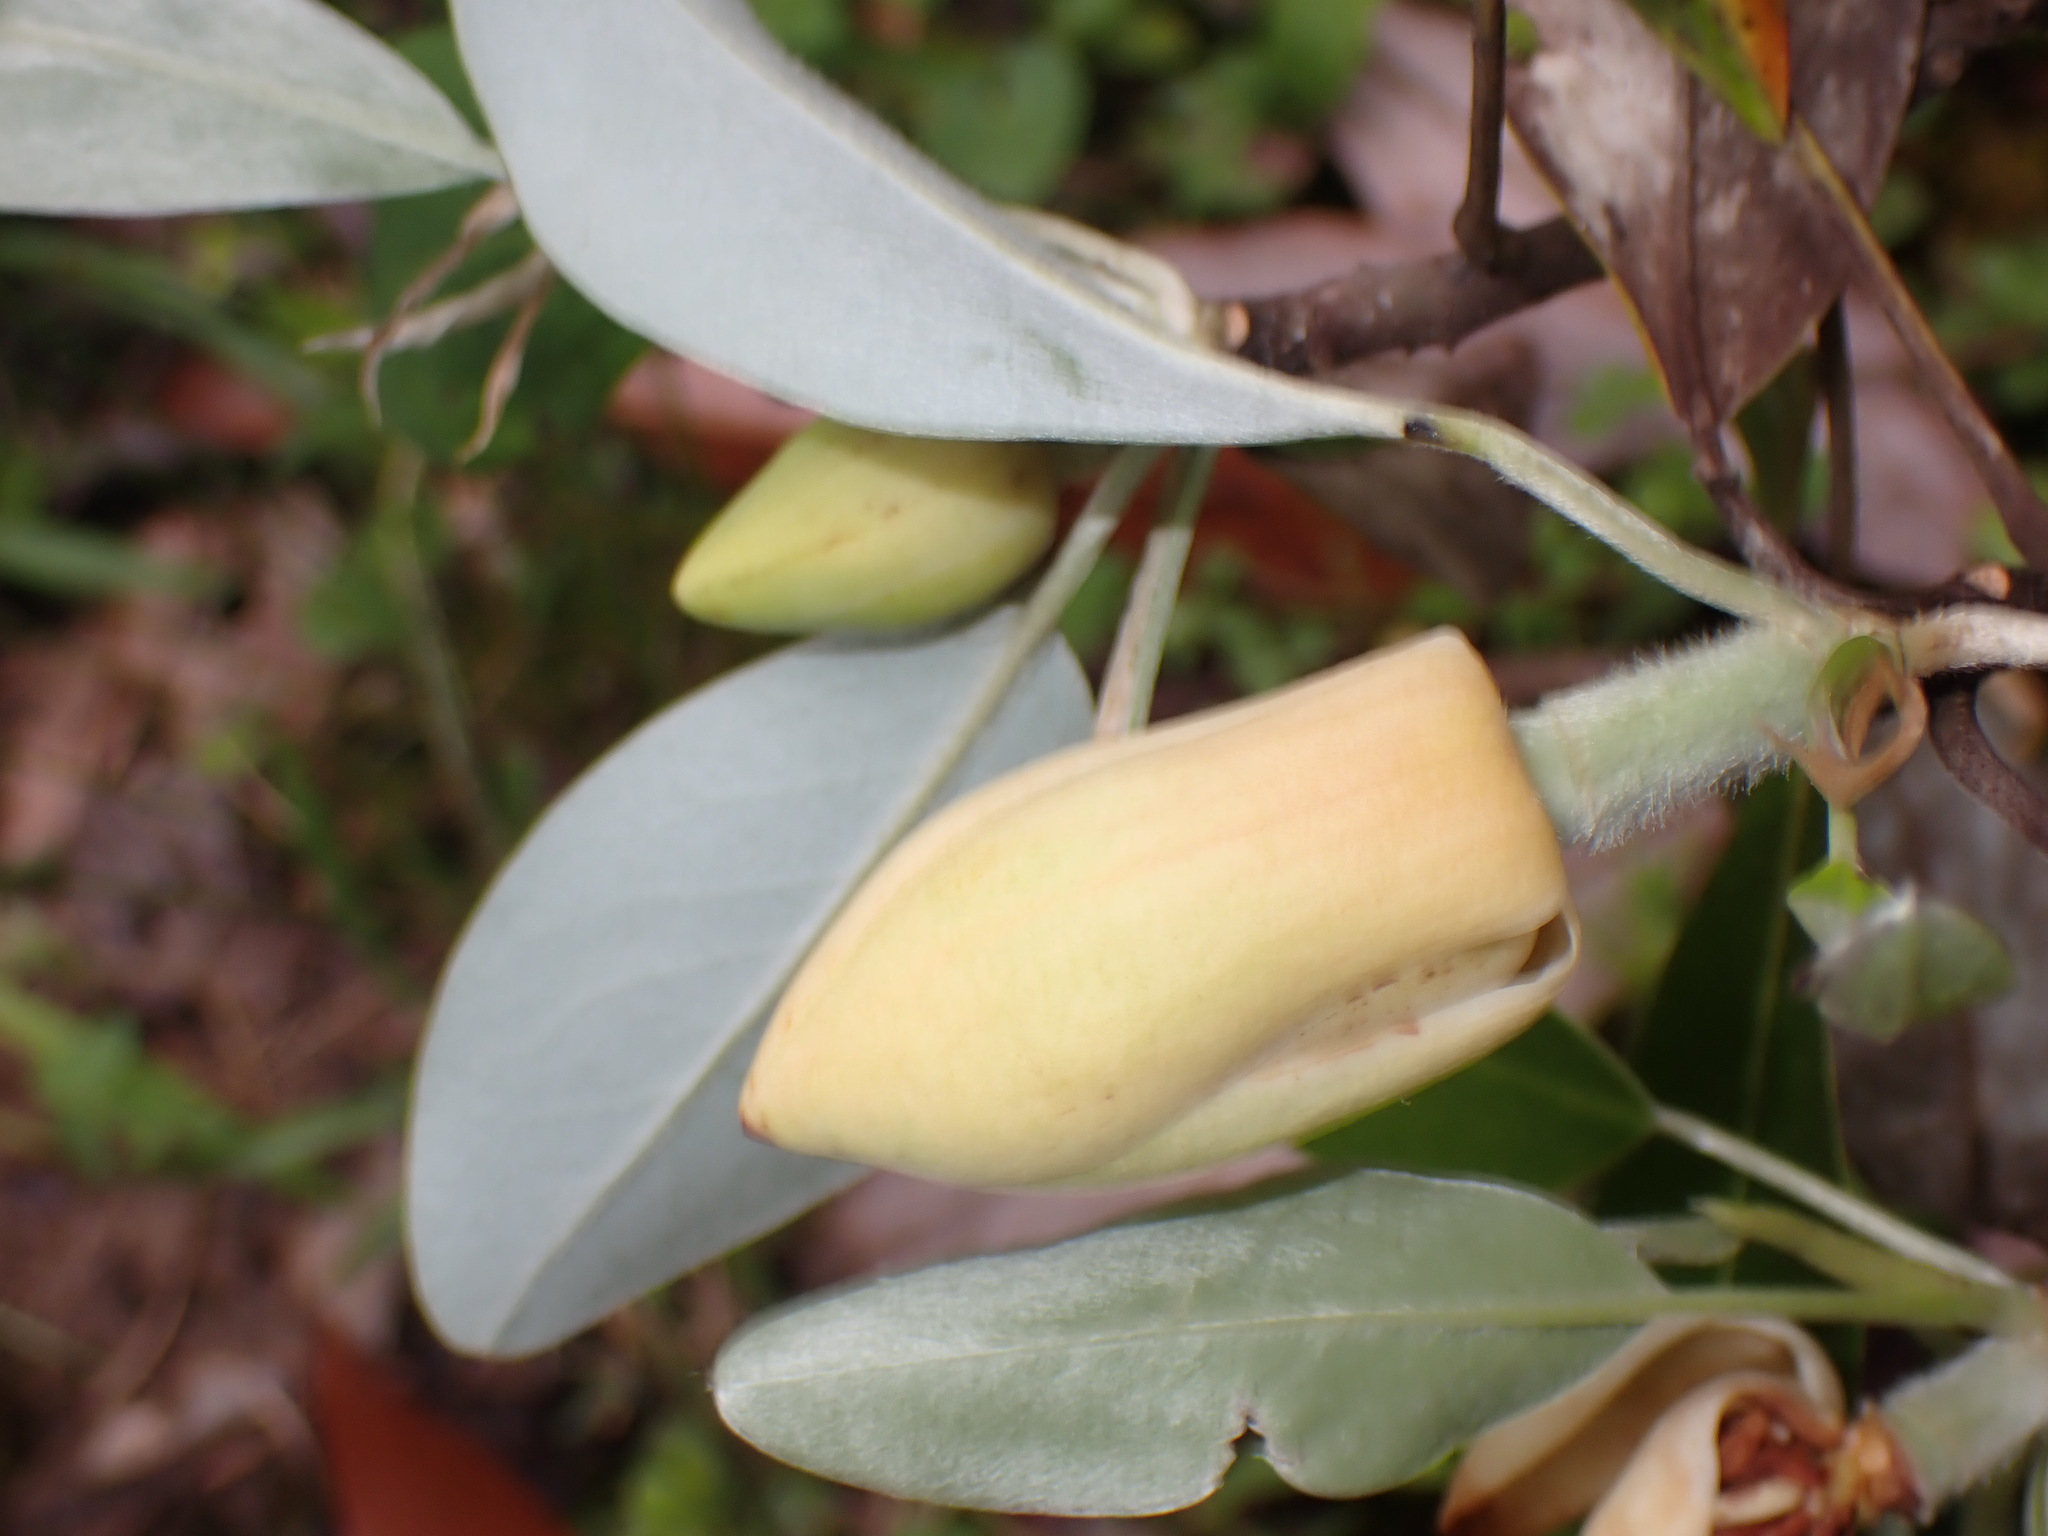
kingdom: Plantae
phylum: Tracheophyta
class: Magnoliopsida
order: Magnoliales
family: Magnoliaceae
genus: Magnolia
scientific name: Magnolia virginiana
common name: Swamp bay
